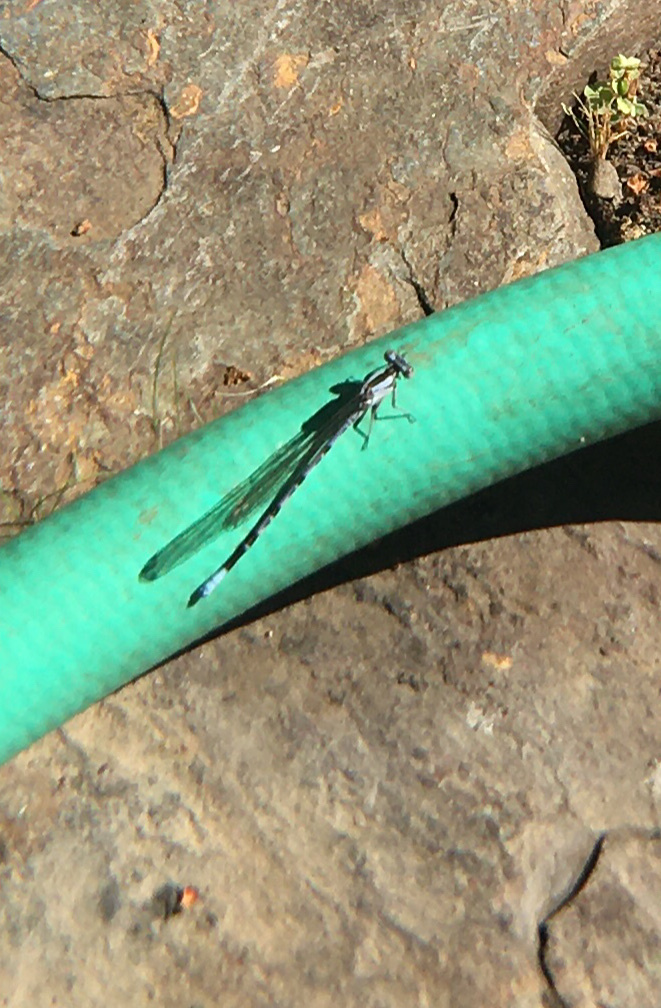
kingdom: Animalia
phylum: Arthropoda
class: Insecta
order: Odonata
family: Coenagrionidae
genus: Argia
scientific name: Argia vivida
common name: Vivid dancer
